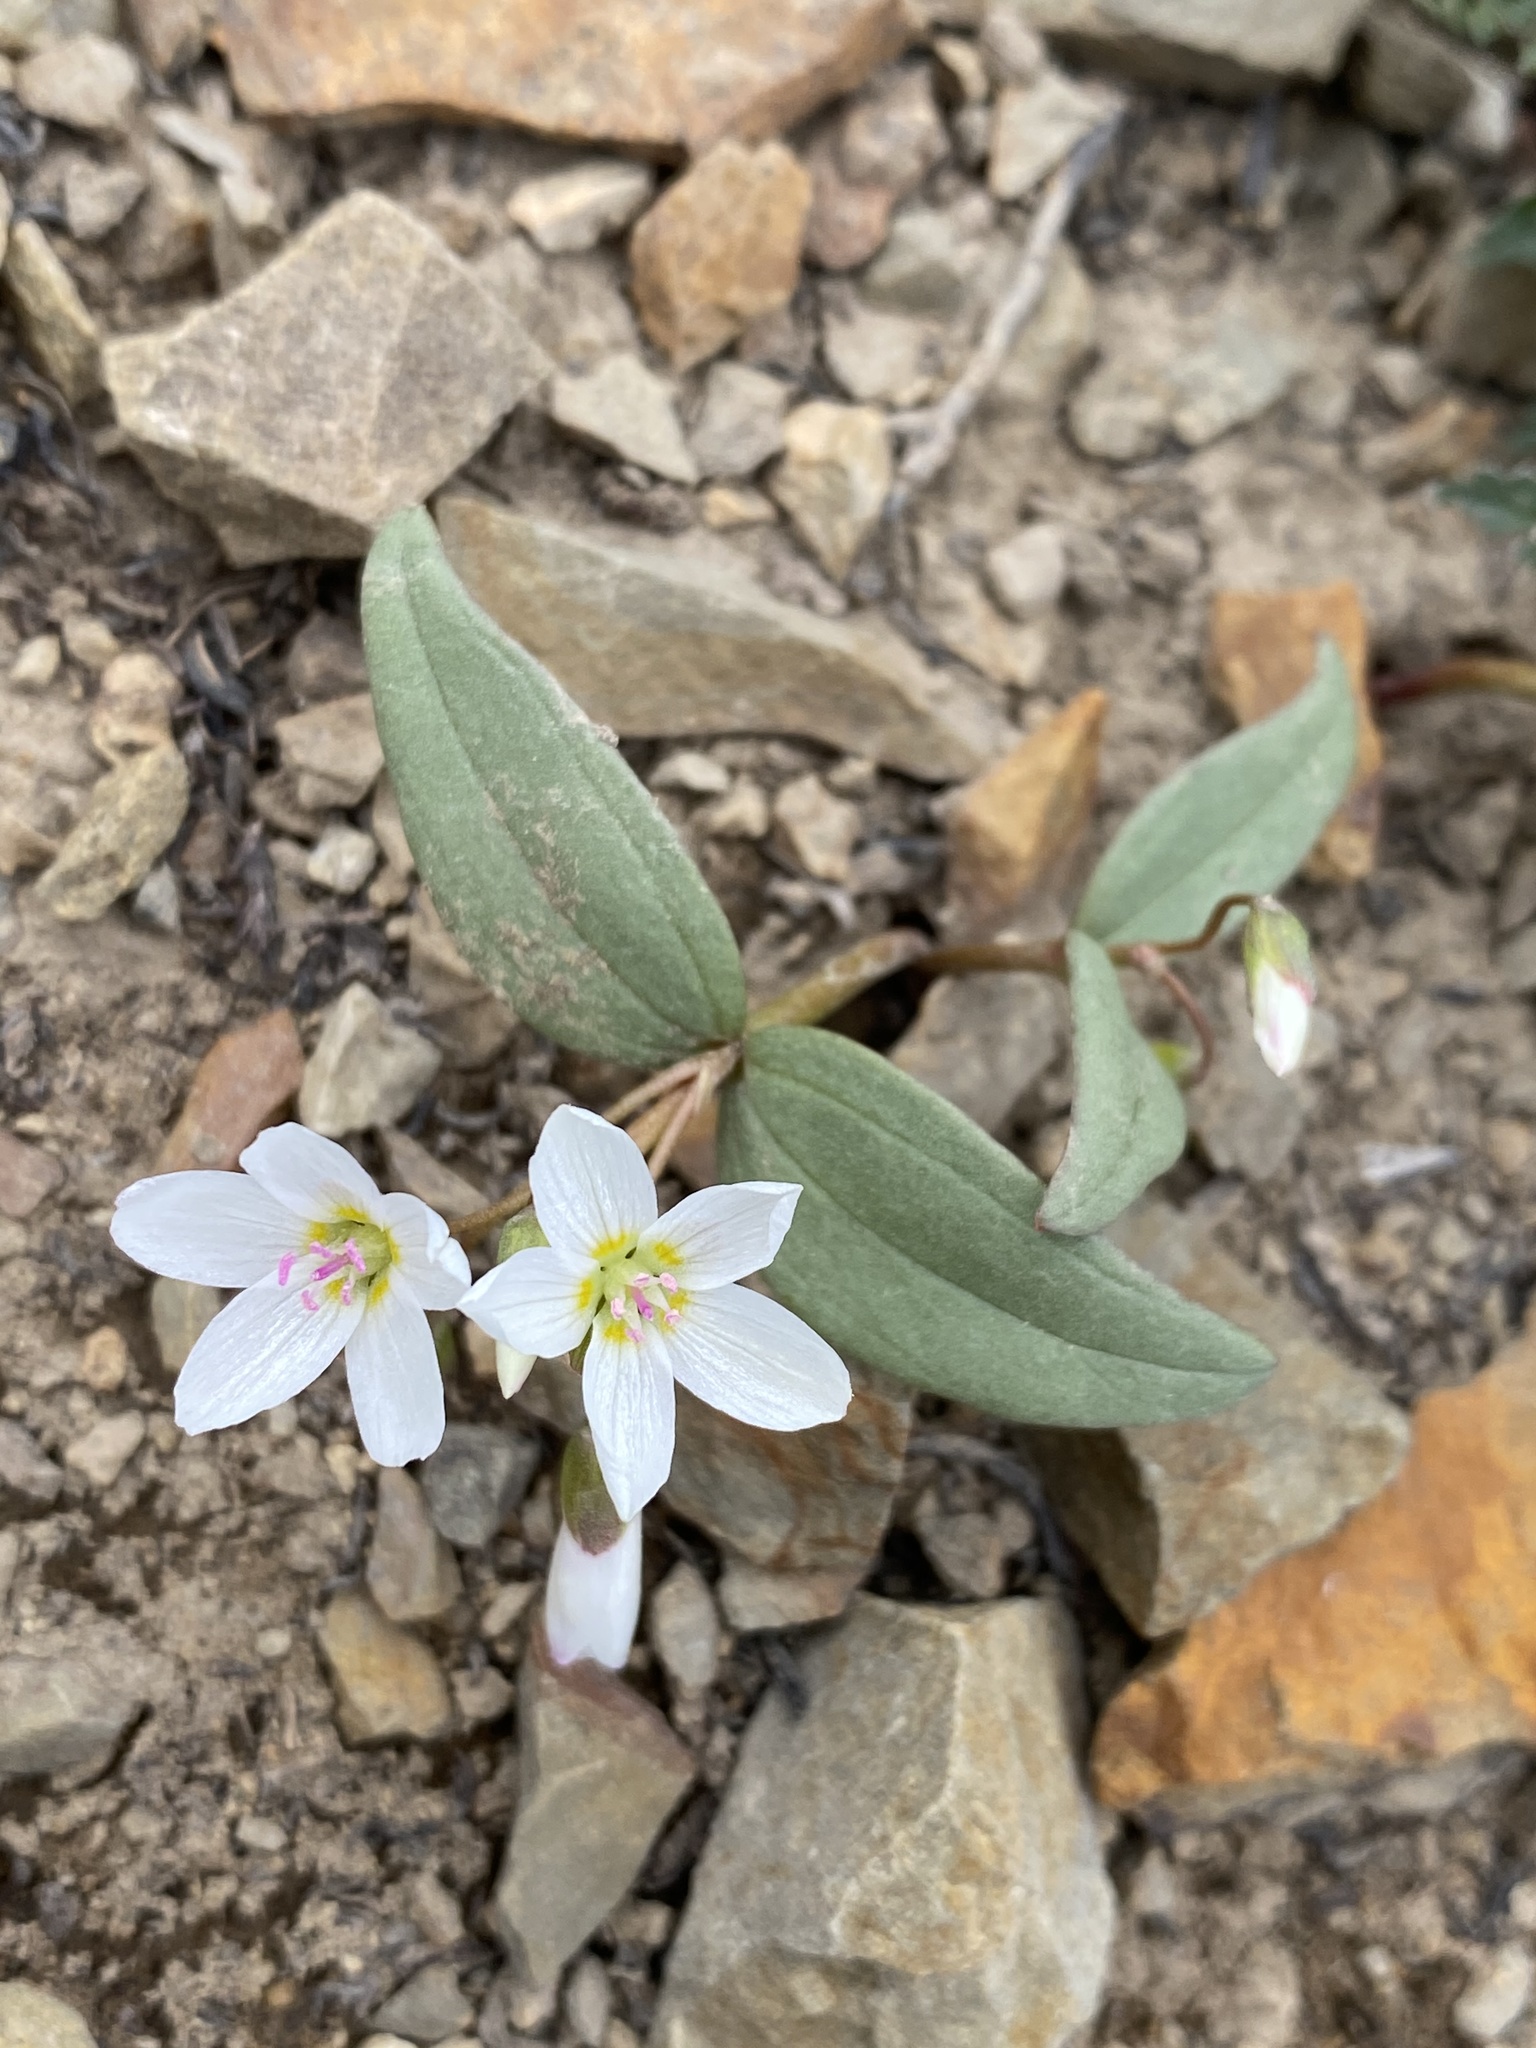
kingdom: Plantae
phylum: Tracheophyta
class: Magnoliopsida
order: Caryophyllales
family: Montiaceae
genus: Claytonia
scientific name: Claytonia lanceolata
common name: Western spring-beauty
